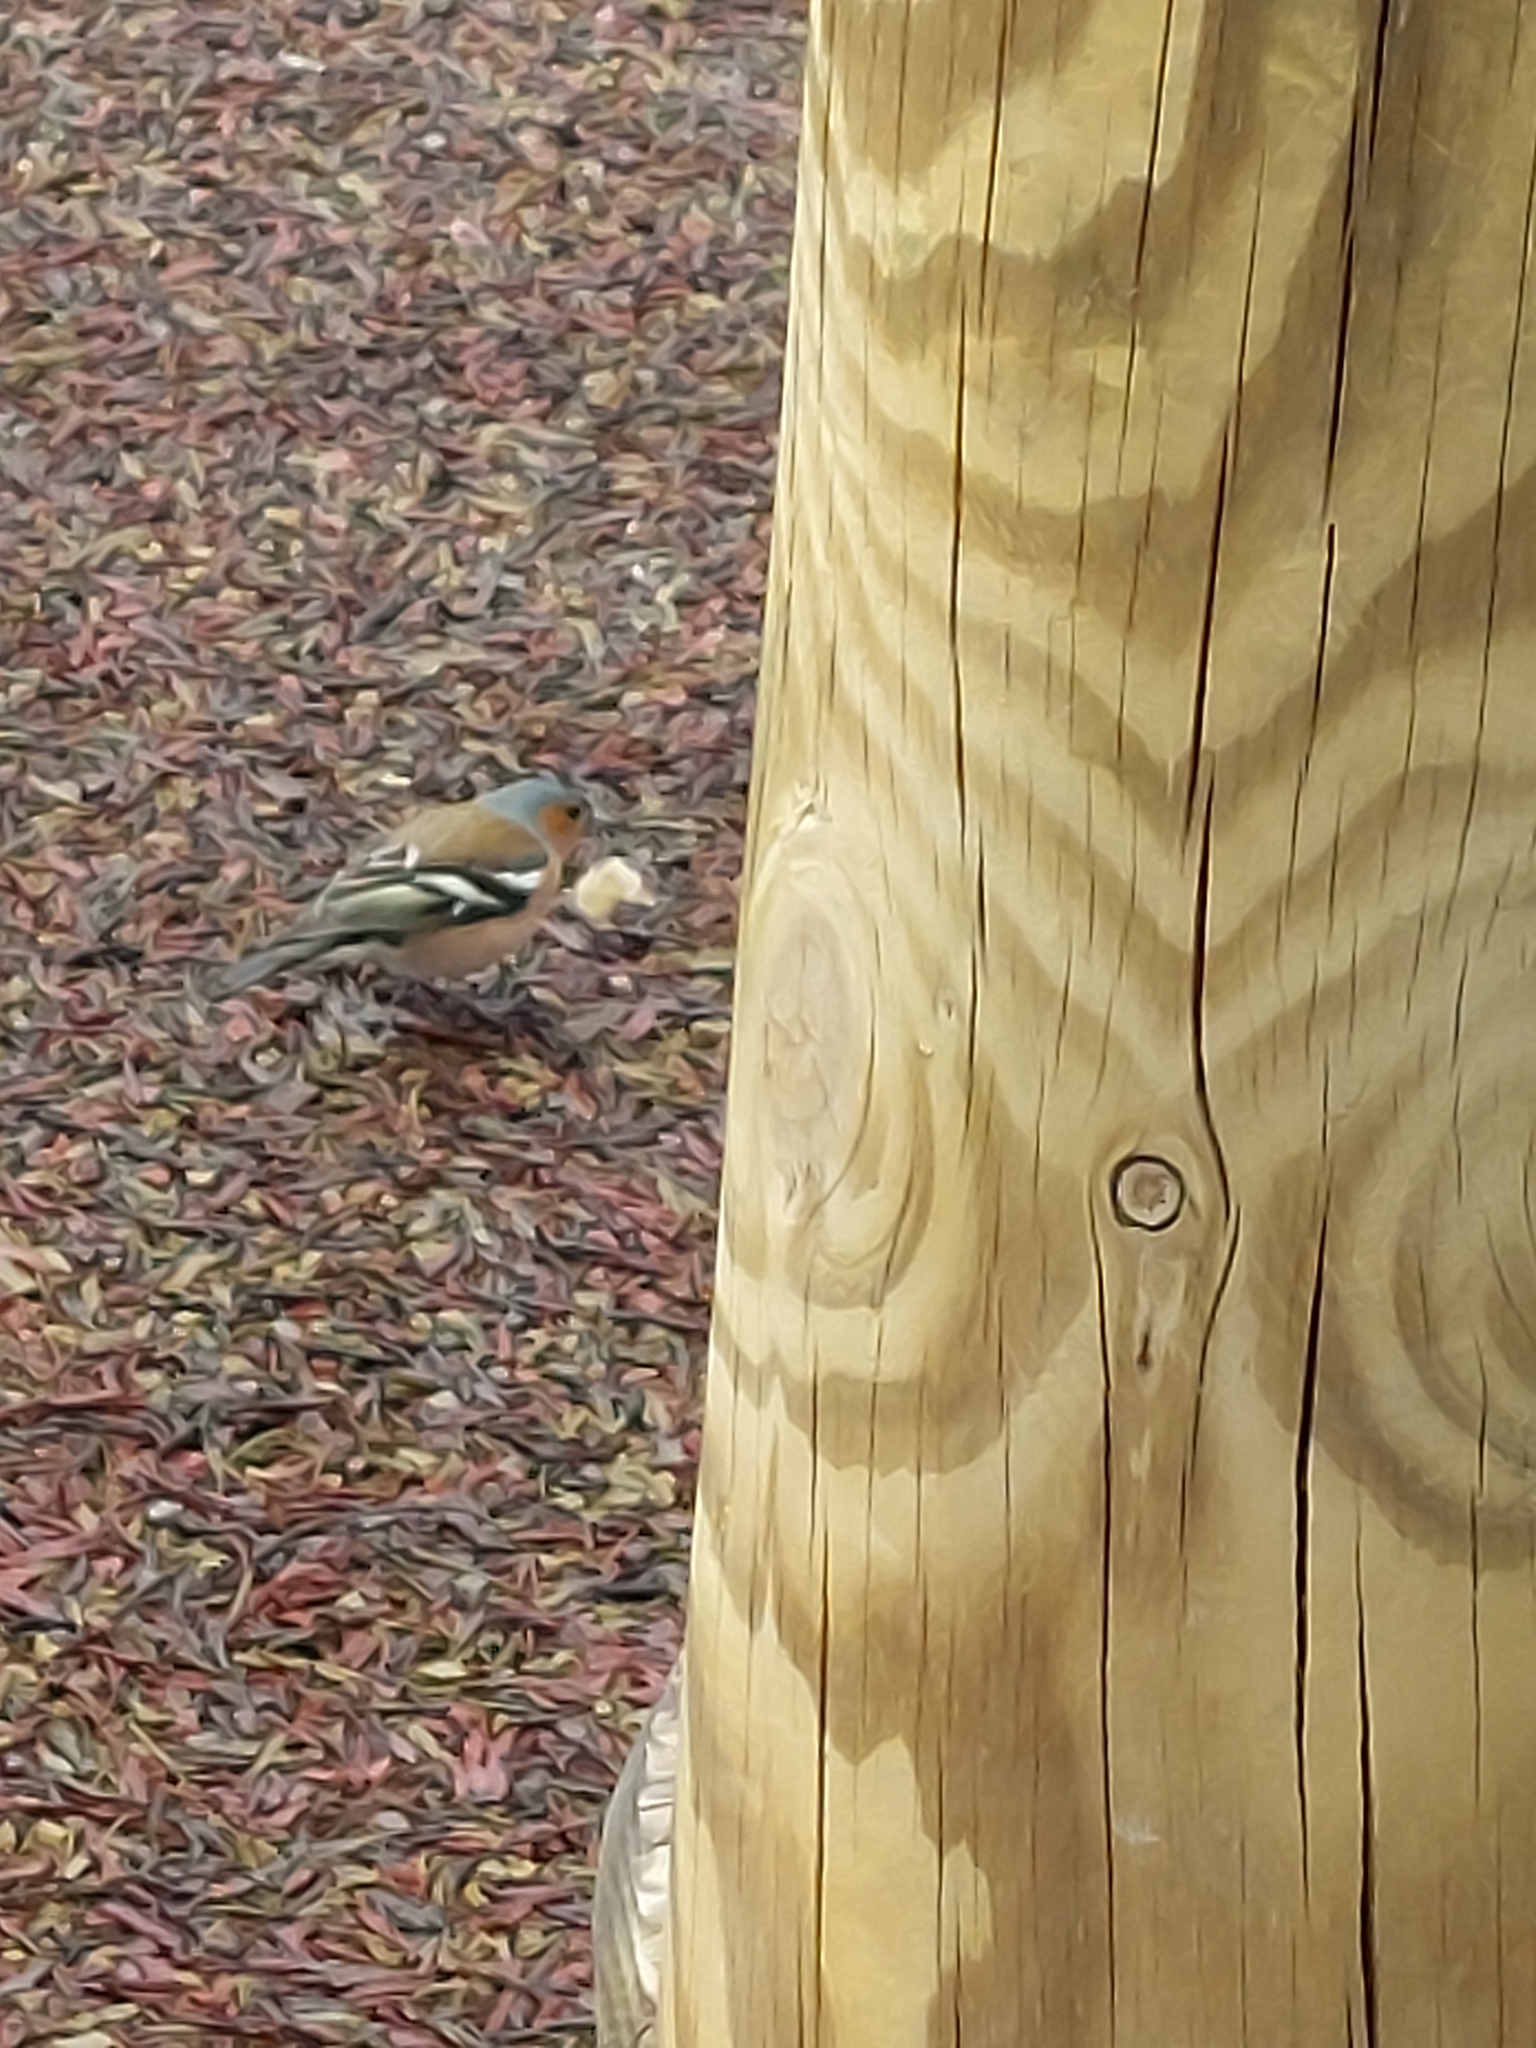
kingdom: Animalia
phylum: Chordata
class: Aves
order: Passeriformes
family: Fringillidae
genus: Fringilla
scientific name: Fringilla coelebs
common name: Common chaffinch
